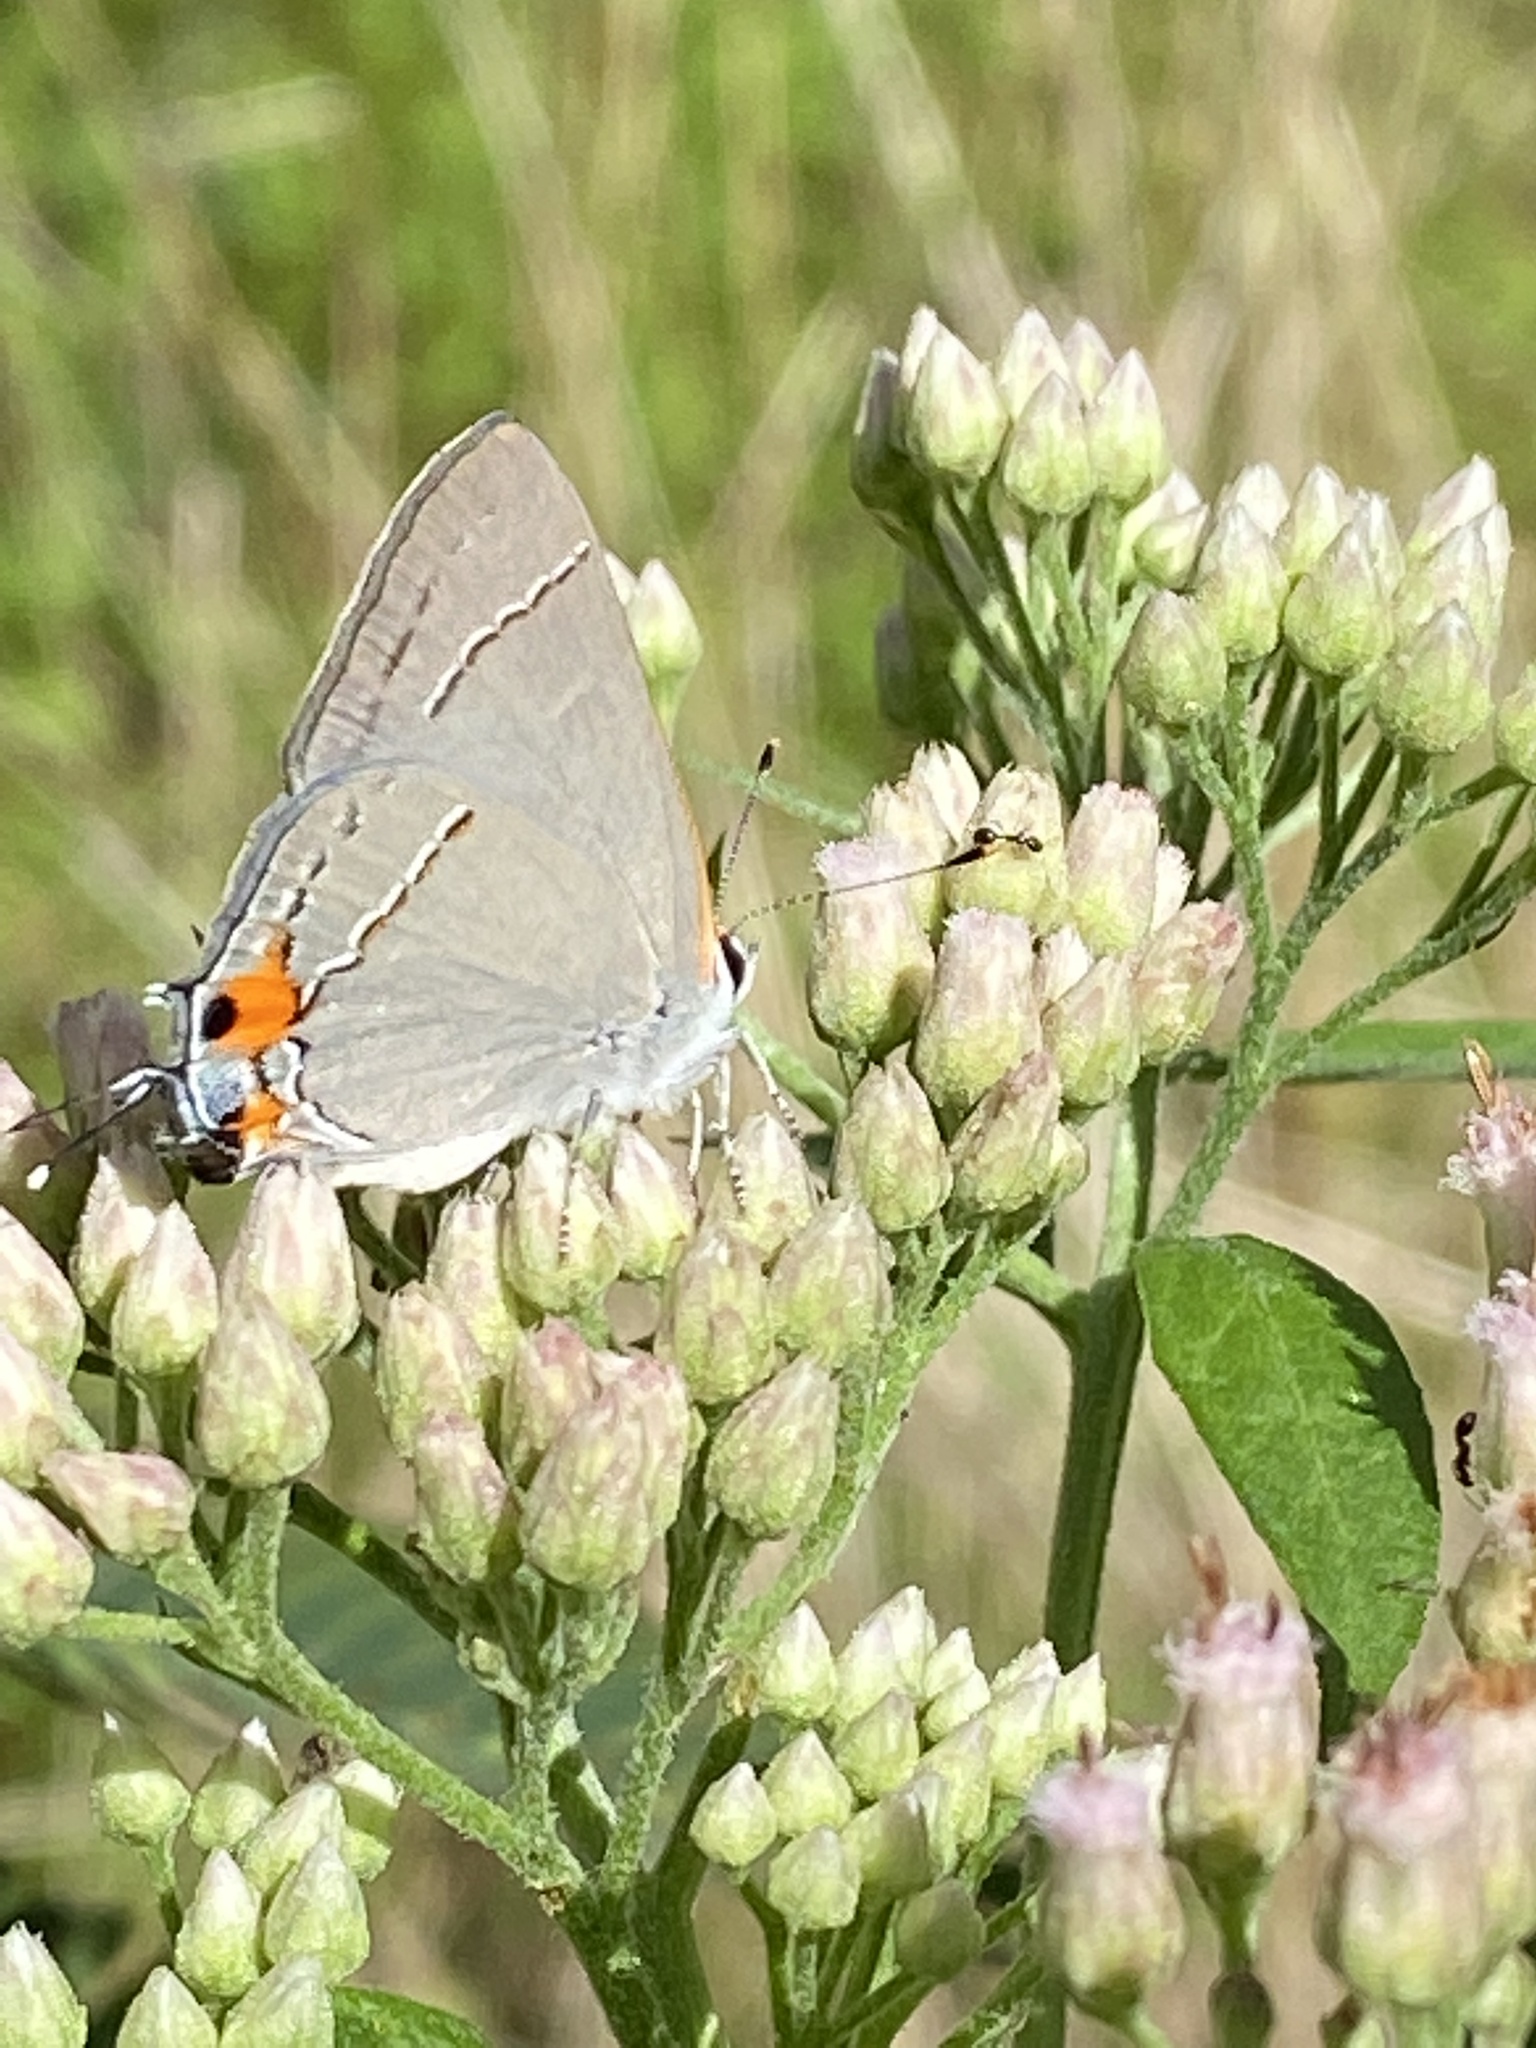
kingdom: Animalia
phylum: Arthropoda
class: Insecta
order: Lepidoptera
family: Lycaenidae
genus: Strymon
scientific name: Strymon melinus
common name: Gray hairstreak
